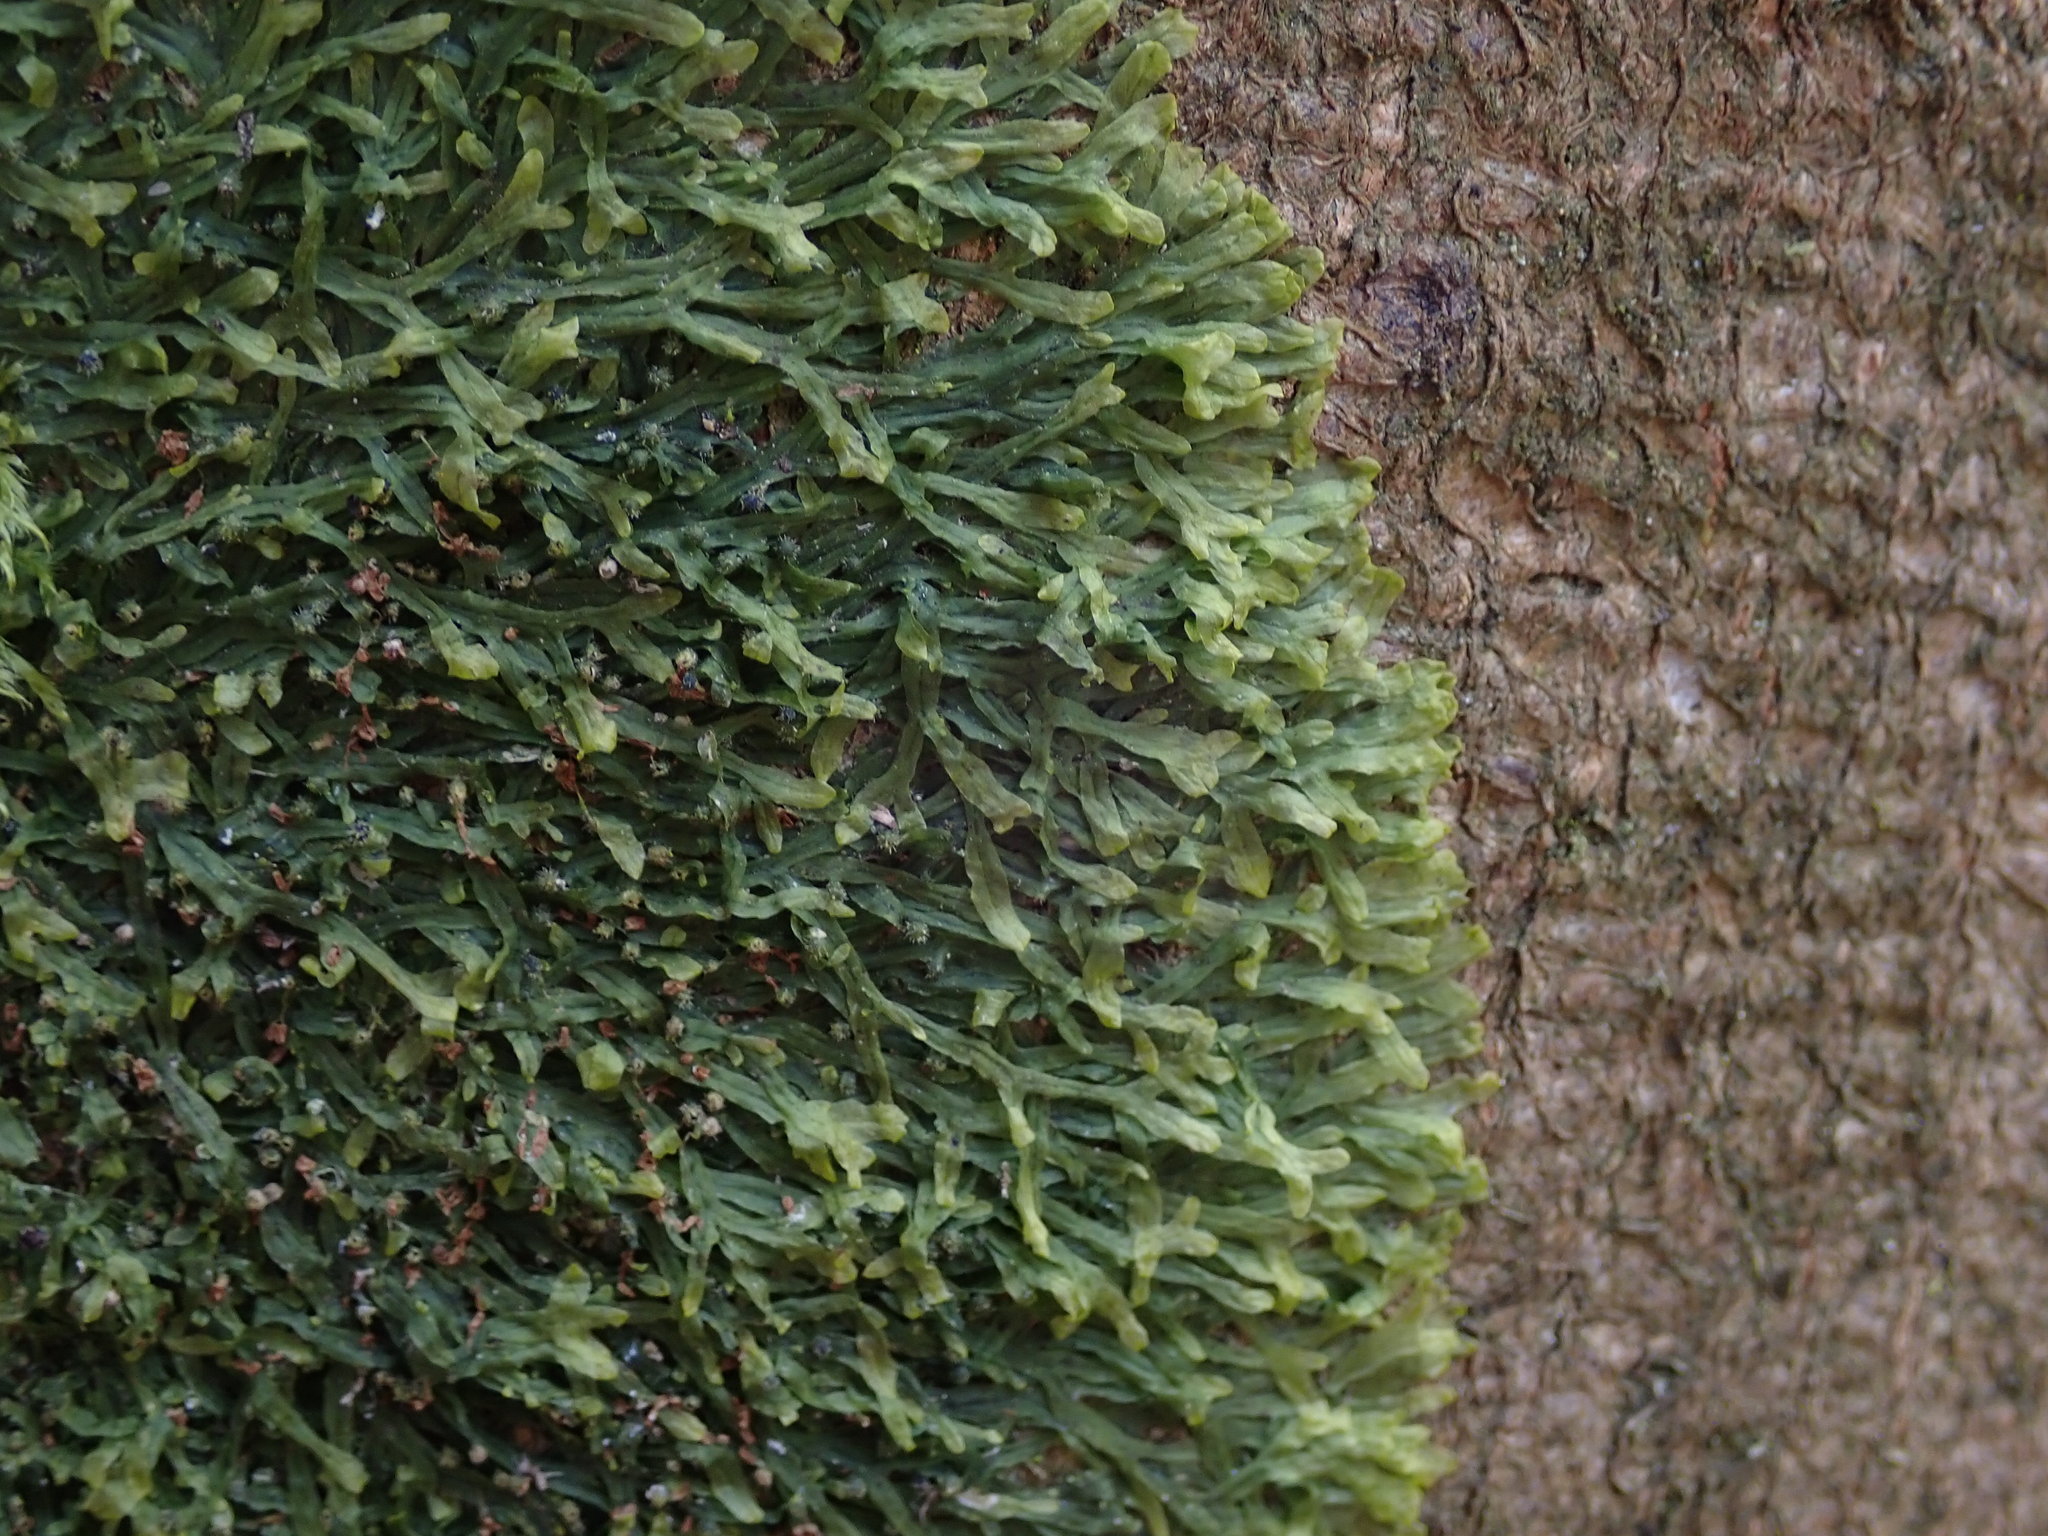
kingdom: Plantae
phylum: Marchantiophyta
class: Jungermanniopsida
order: Metzgeriales
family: Metzgeriaceae
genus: Metzgeria
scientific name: Metzgeria furcata
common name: Forked veilwort
